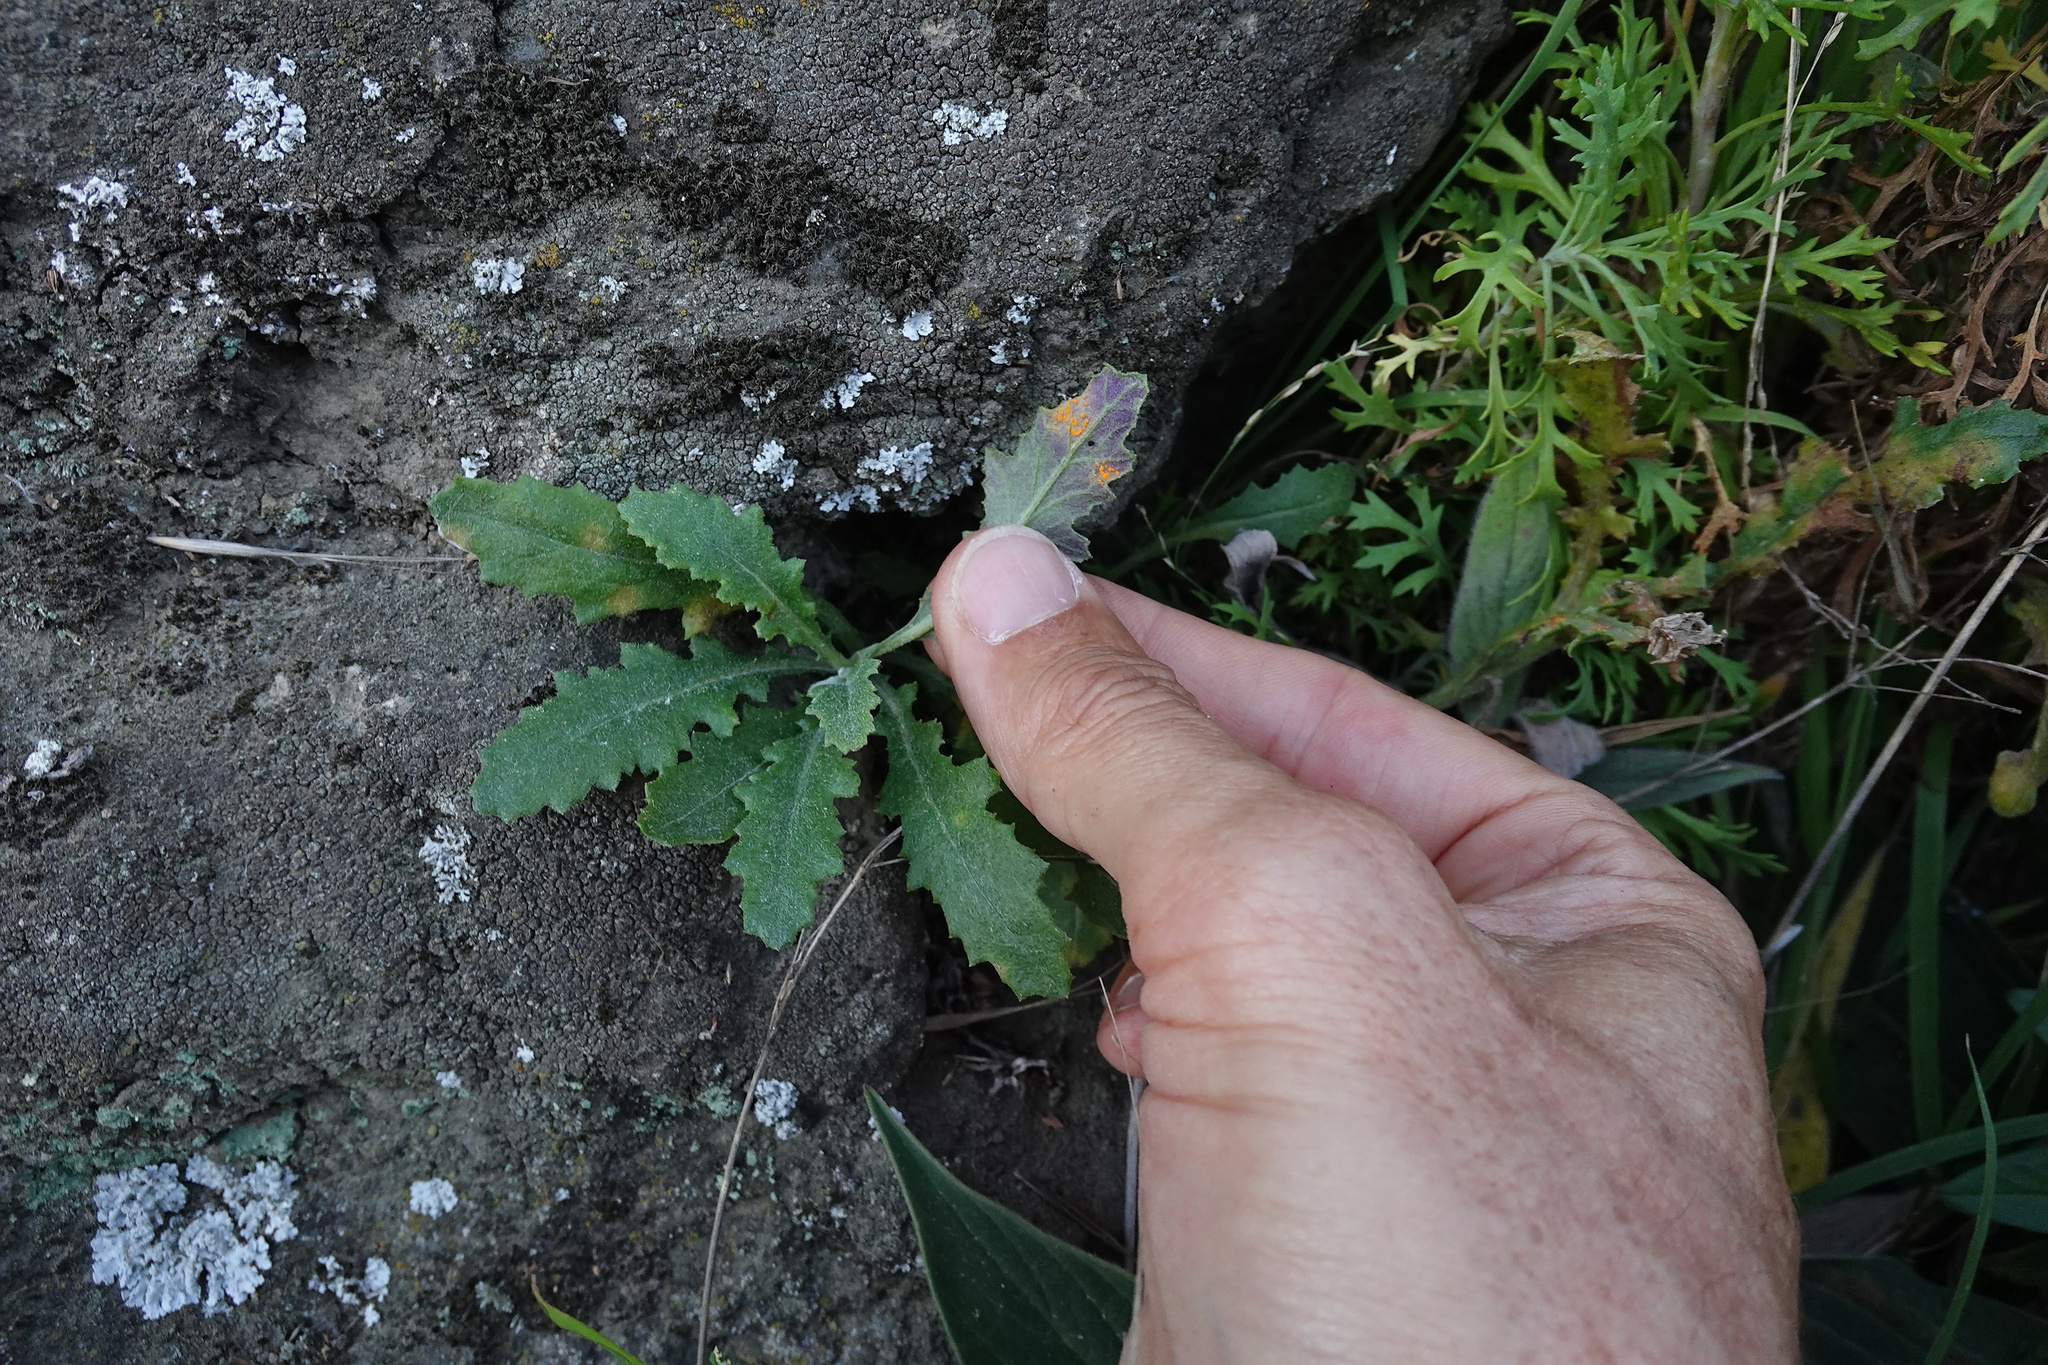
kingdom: Plantae
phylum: Tracheophyta
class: Magnoliopsida
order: Asterales
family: Asteraceae
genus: Senecio
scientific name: Senecio glomeratus
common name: Cutleaf burnweed
